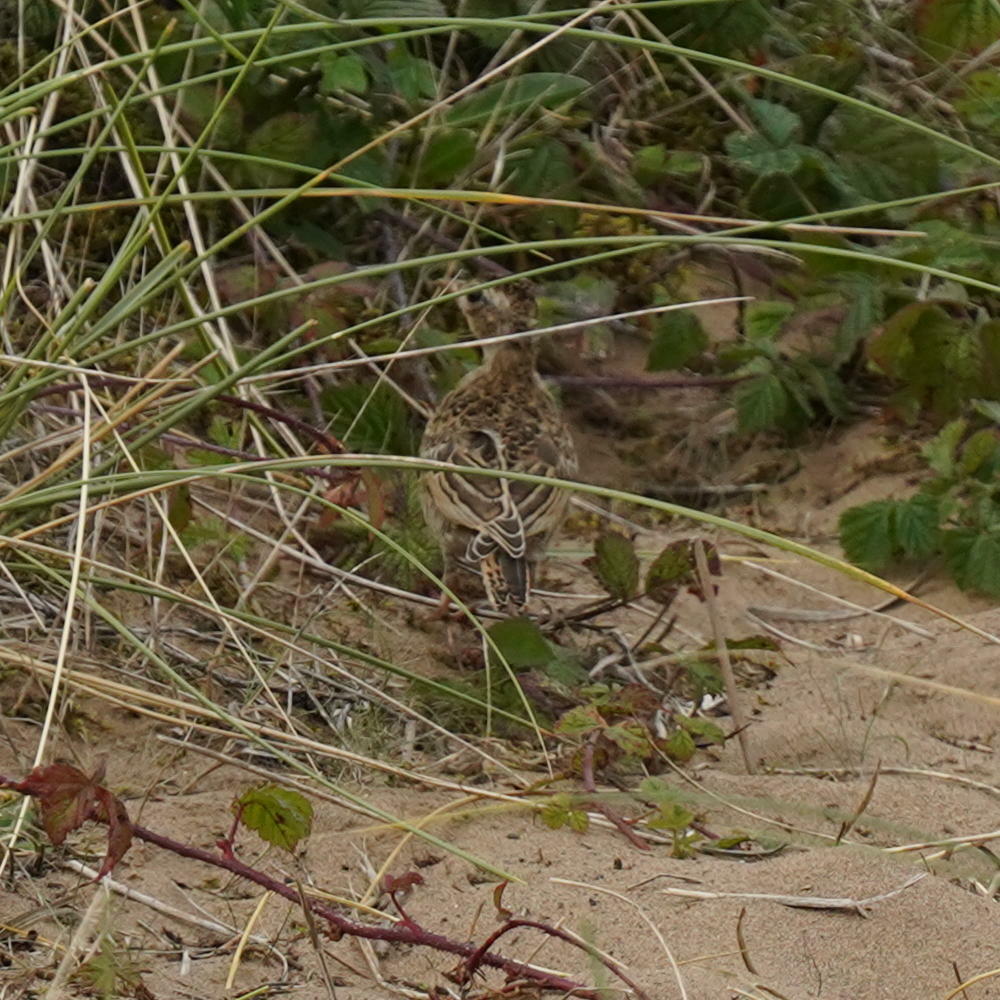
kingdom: Animalia
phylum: Chordata
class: Aves
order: Passeriformes
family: Alaudidae
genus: Alauda
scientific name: Alauda arvensis
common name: Eurasian skylark
